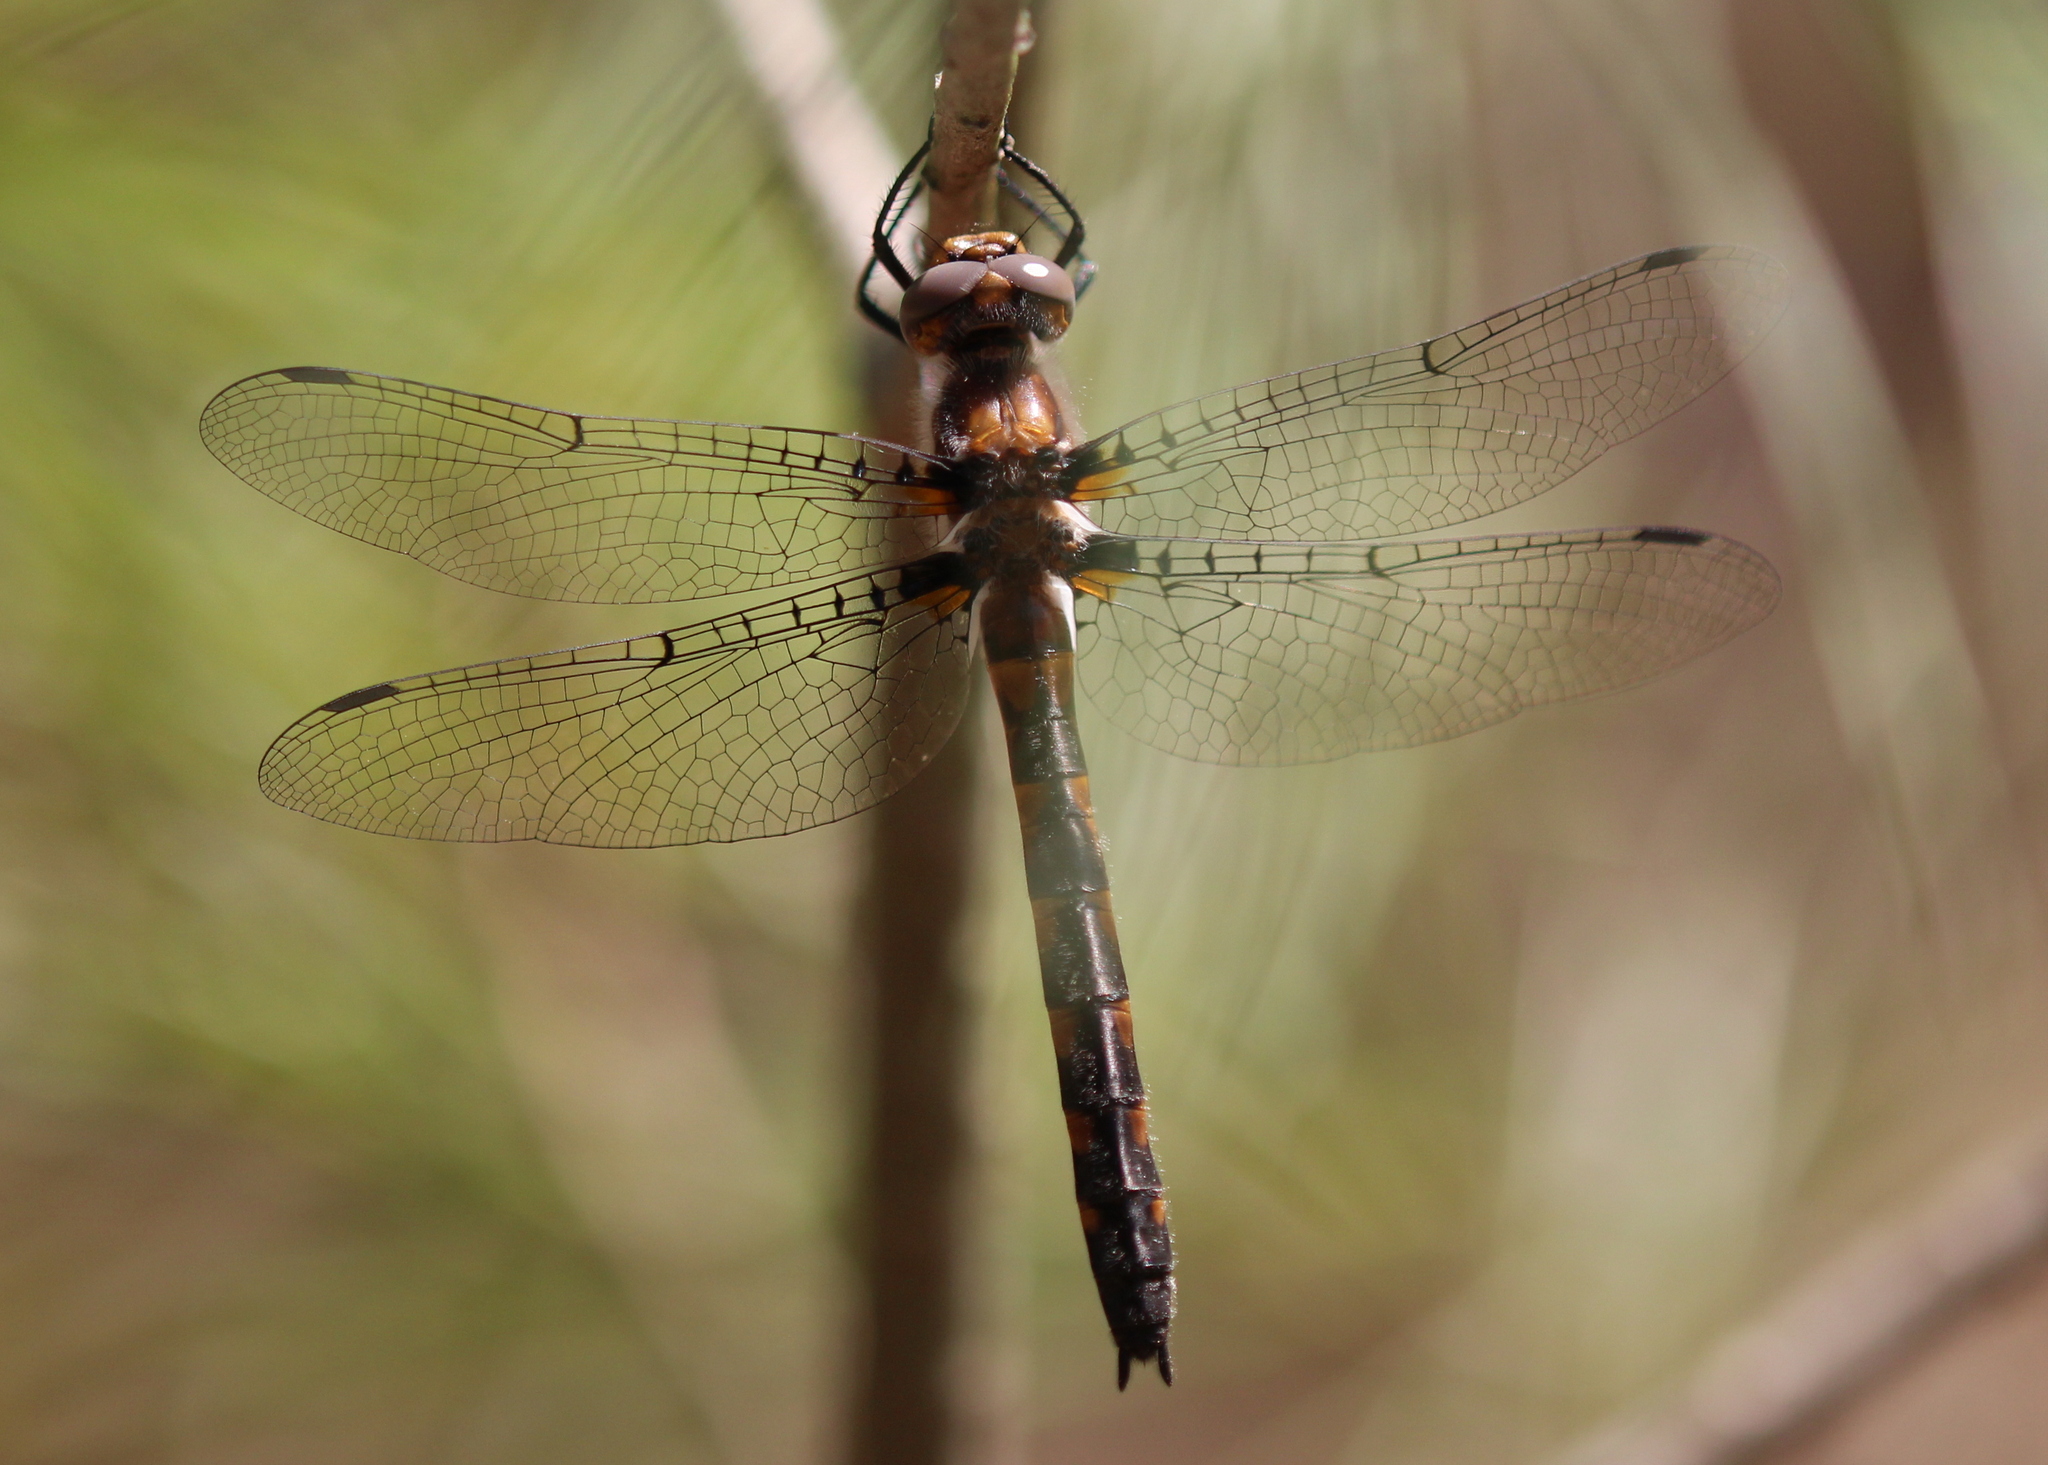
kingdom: Animalia
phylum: Arthropoda
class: Insecta
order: Odonata
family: Corduliidae
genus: Helocordulia
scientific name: Helocordulia uhleri
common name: Uhler's sundragon
